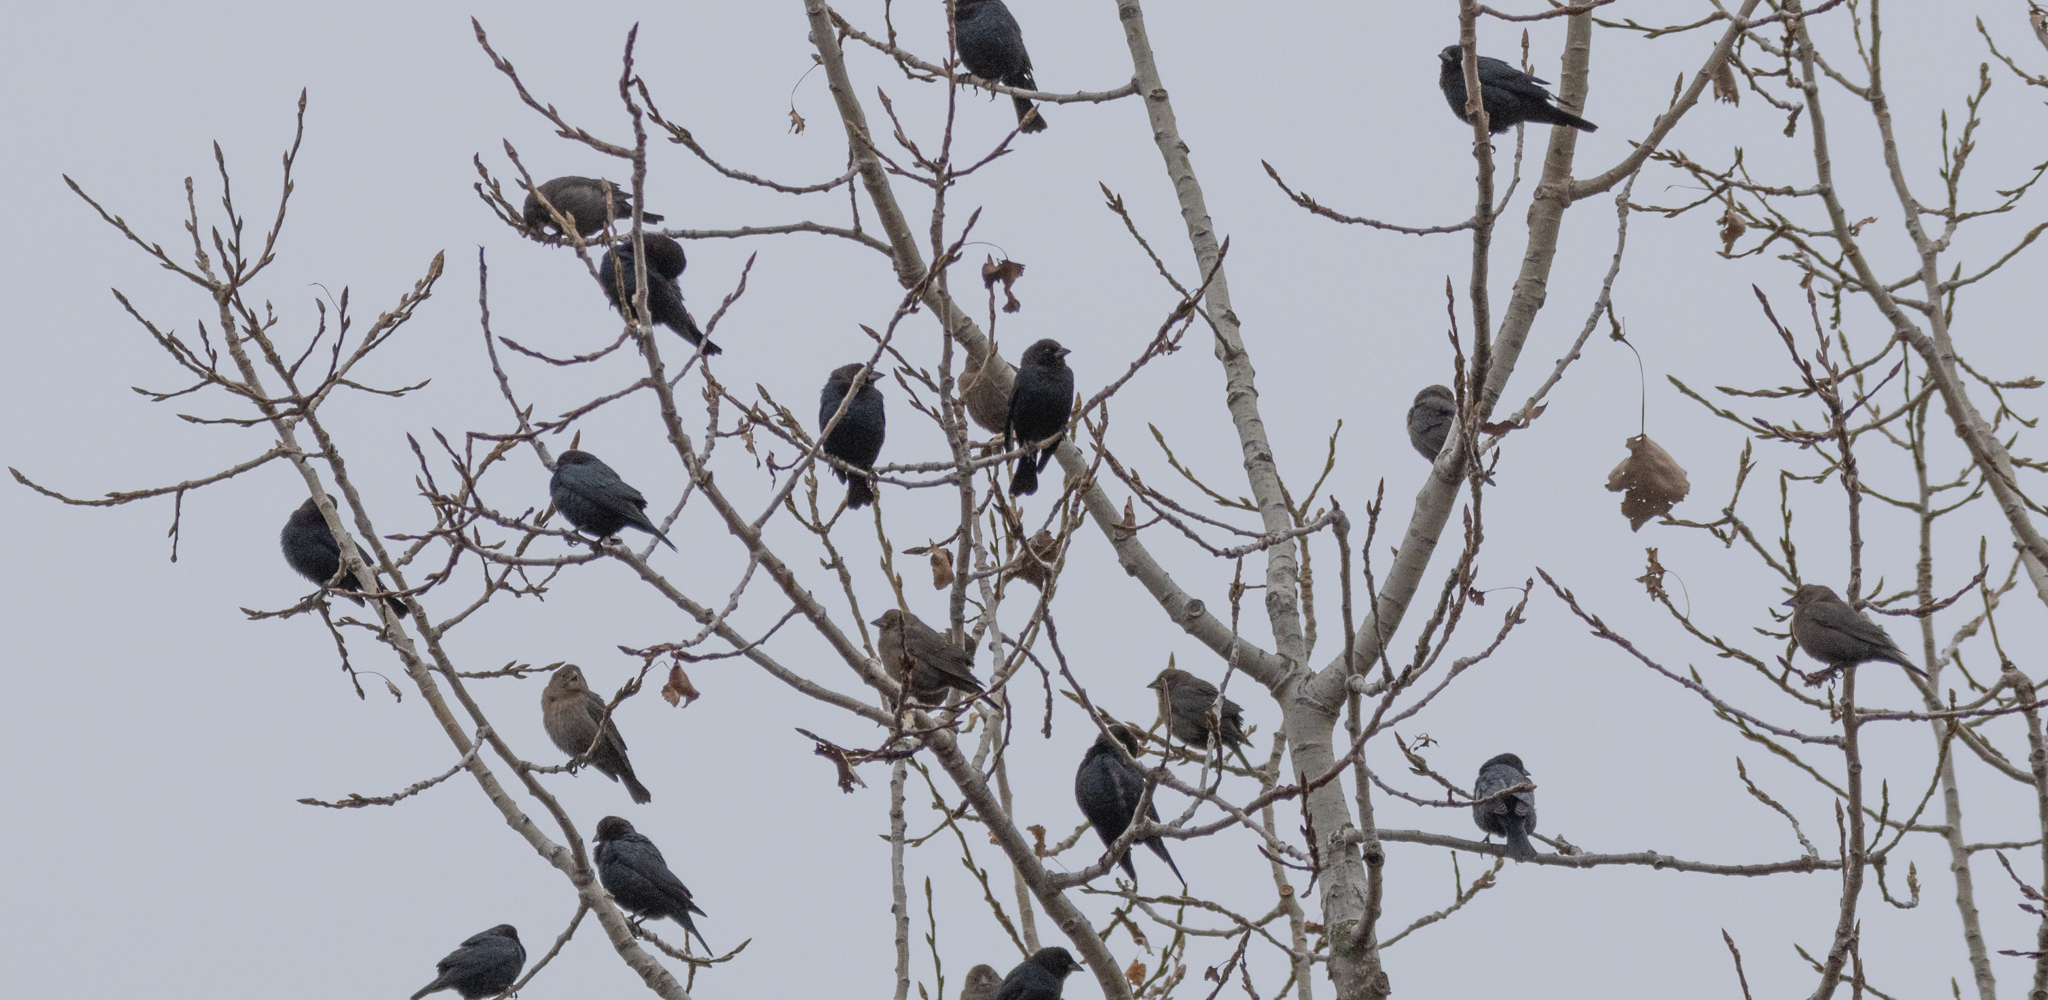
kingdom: Animalia
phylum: Chordata
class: Aves
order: Passeriformes
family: Icteridae
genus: Molothrus
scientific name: Molothrus ater
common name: Brown-headed cowbird
